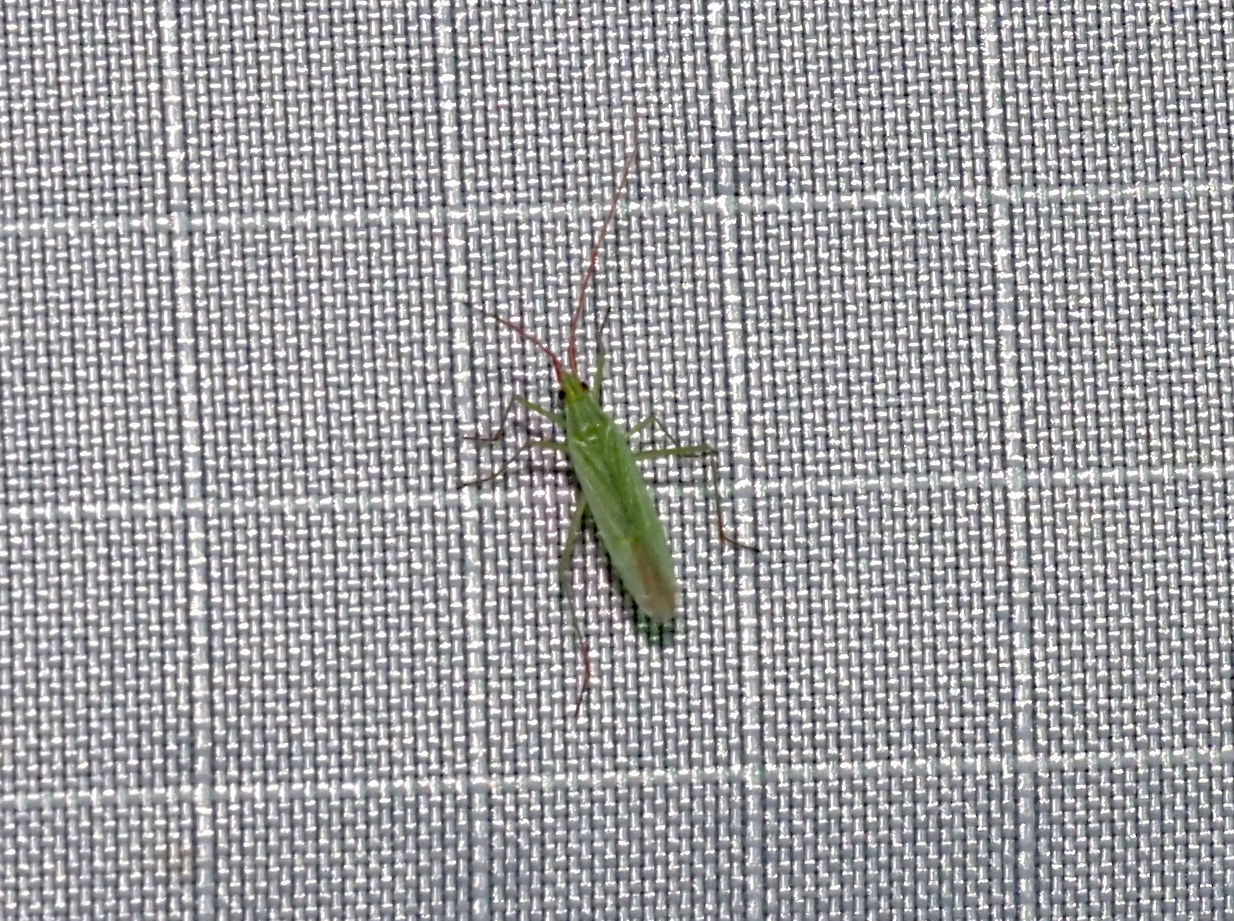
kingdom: Animalia
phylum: Arthropoda
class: Insecta
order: Hemiptera
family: Miridae
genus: Trigonotylus
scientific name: Trigonotylus caelestialium
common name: Rice leaf bug
